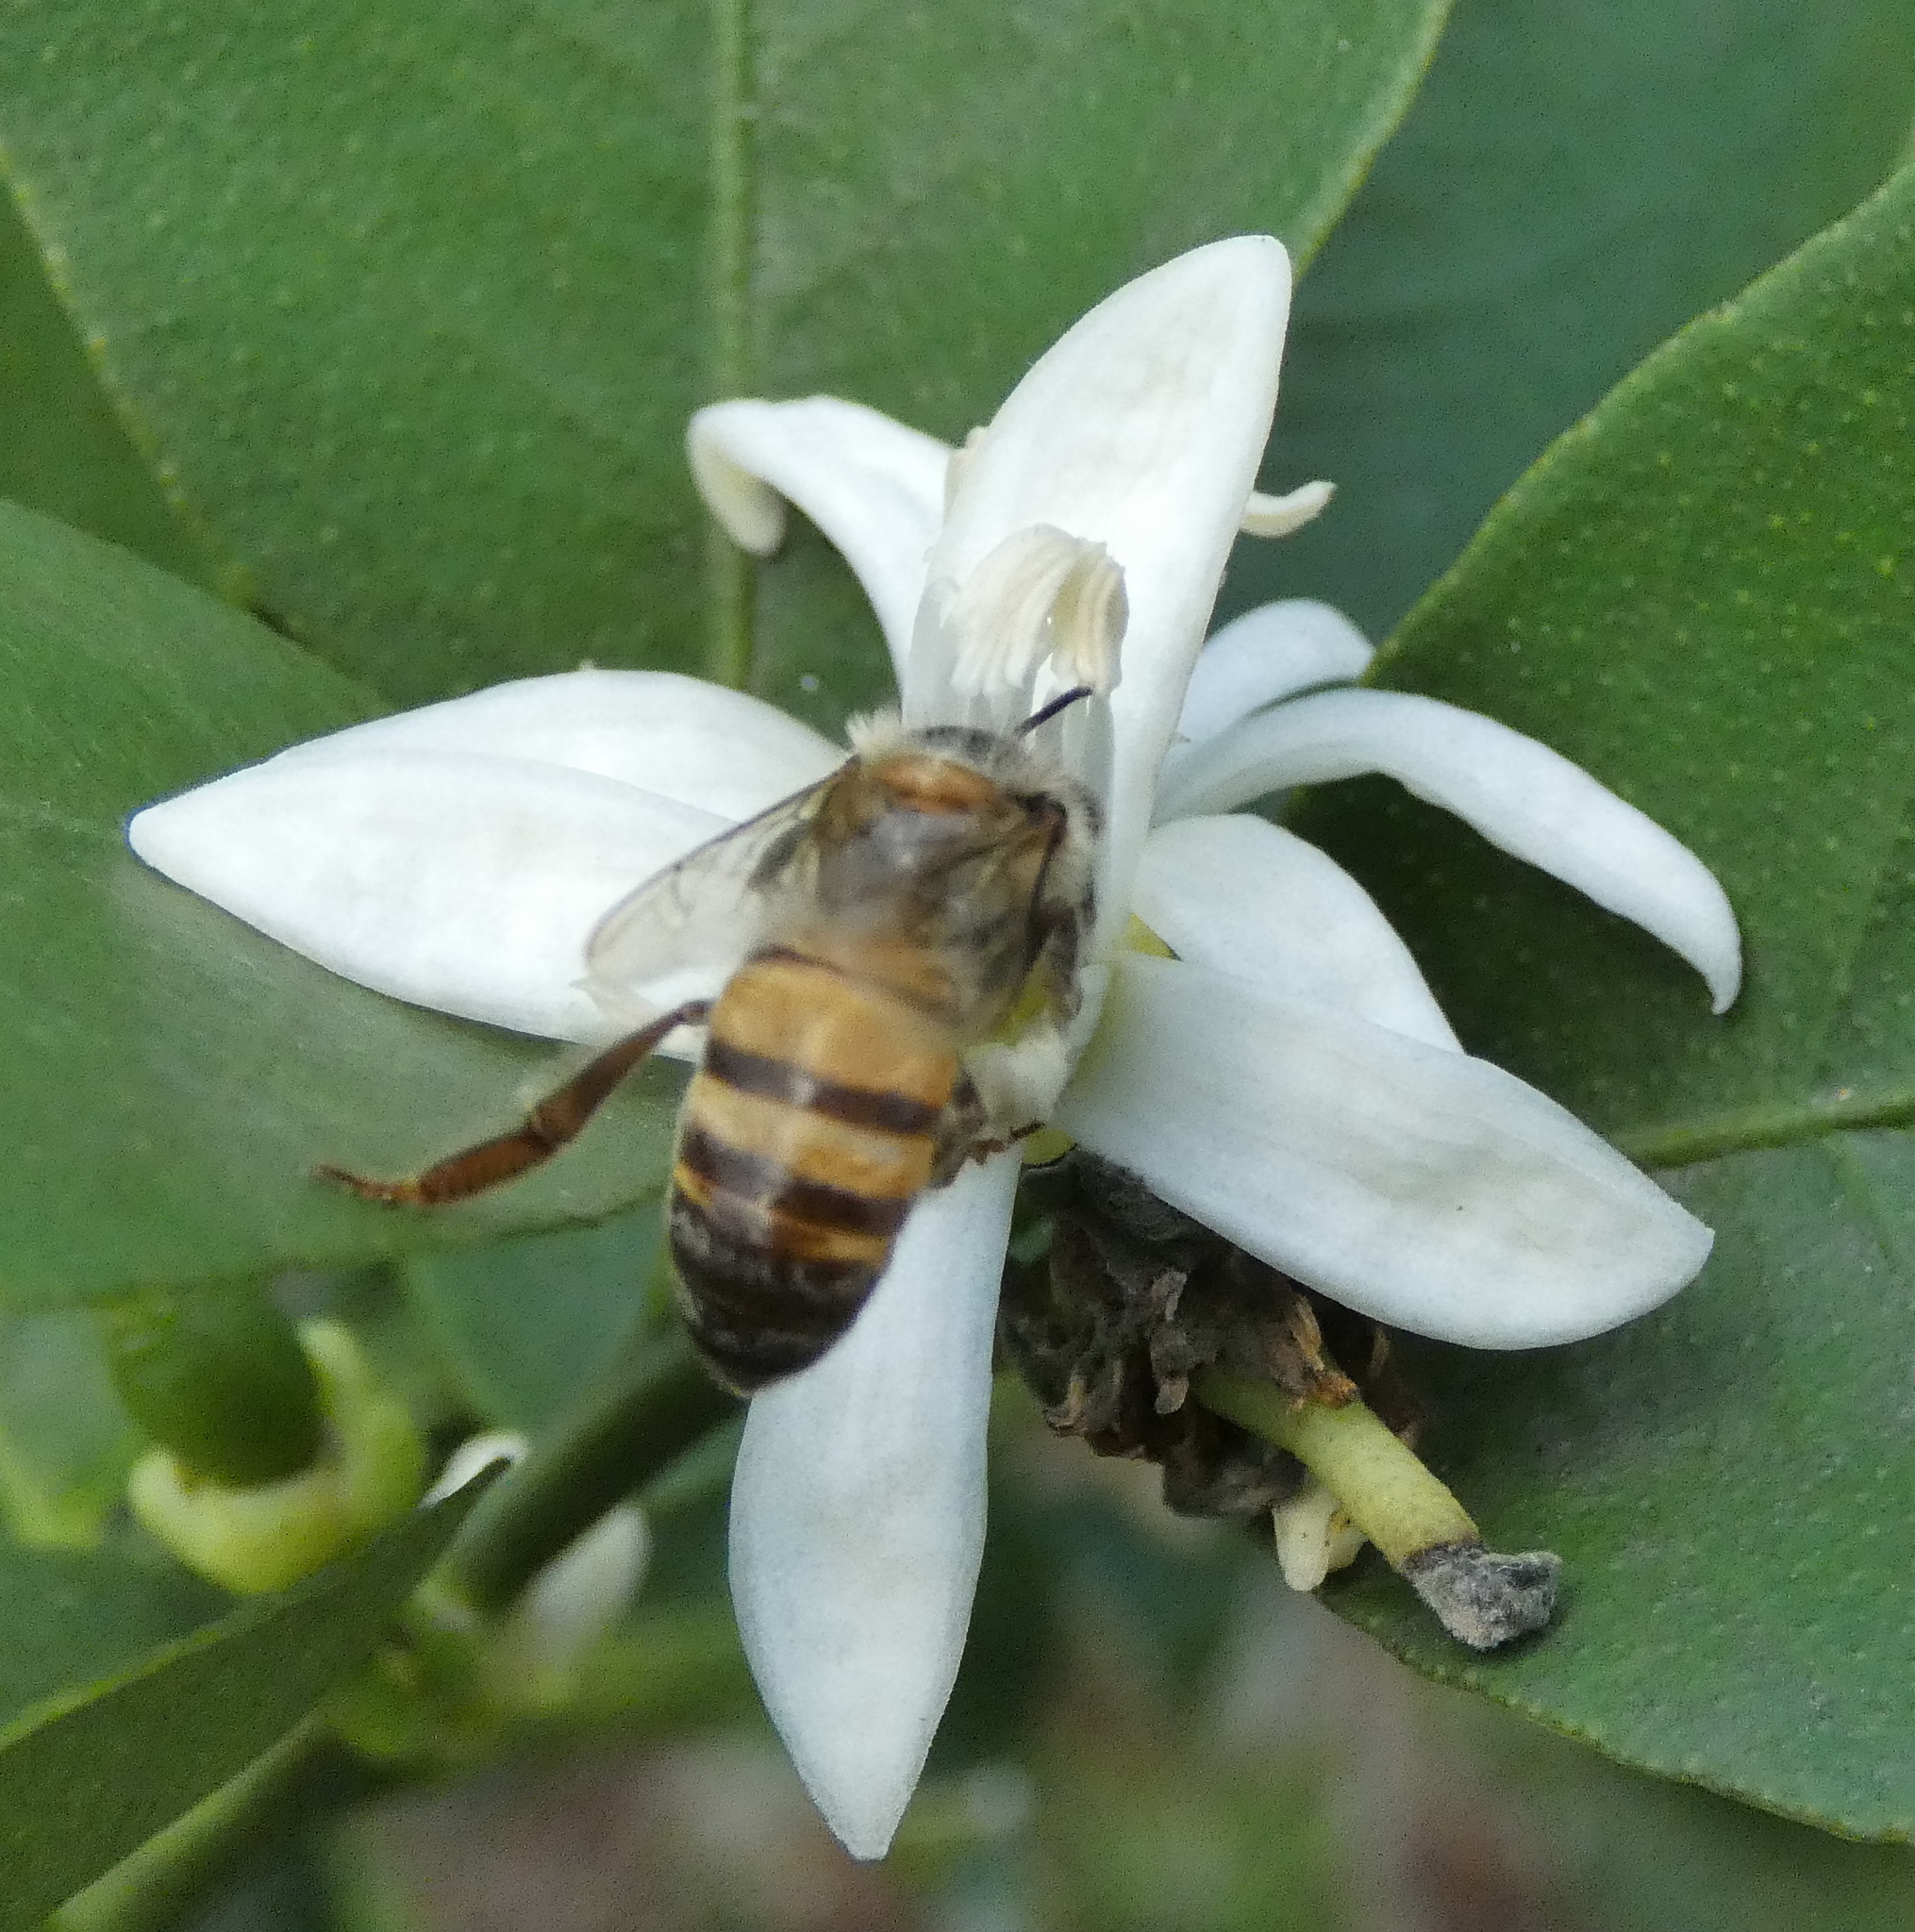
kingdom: Animalia
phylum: Arthropoda
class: Insecta
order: Hymenoptera
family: Apidae
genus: Apis
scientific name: Apis mellifera
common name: Honey bee
